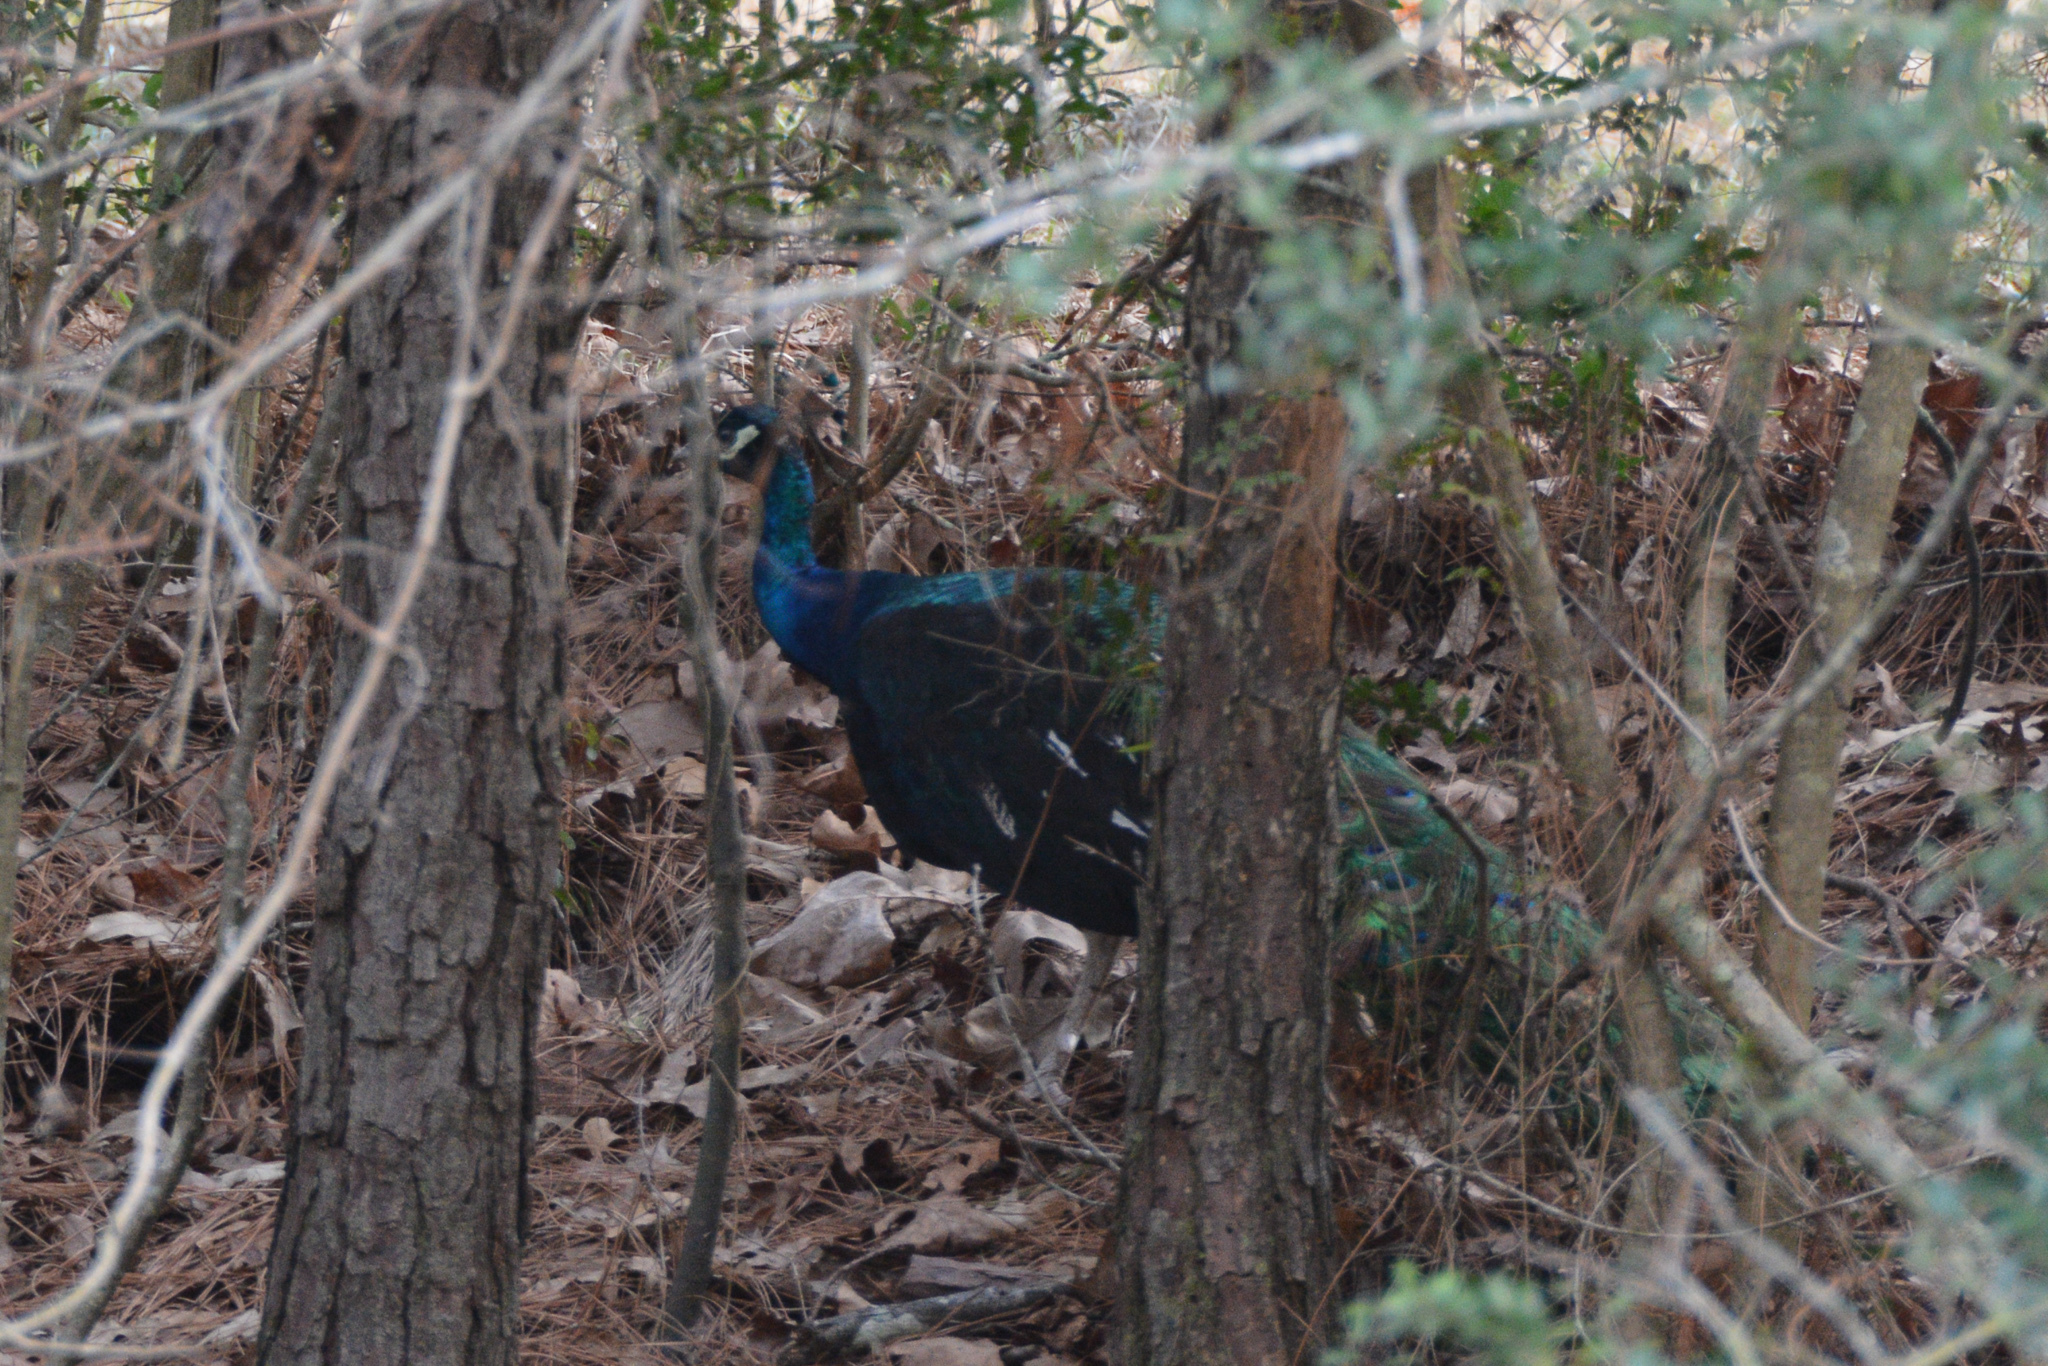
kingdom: Animalia
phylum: Chordata
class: Aves
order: Galliformes
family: Phasianidae
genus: Pavo
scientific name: Pavo cristatus
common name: Indian peafowl
